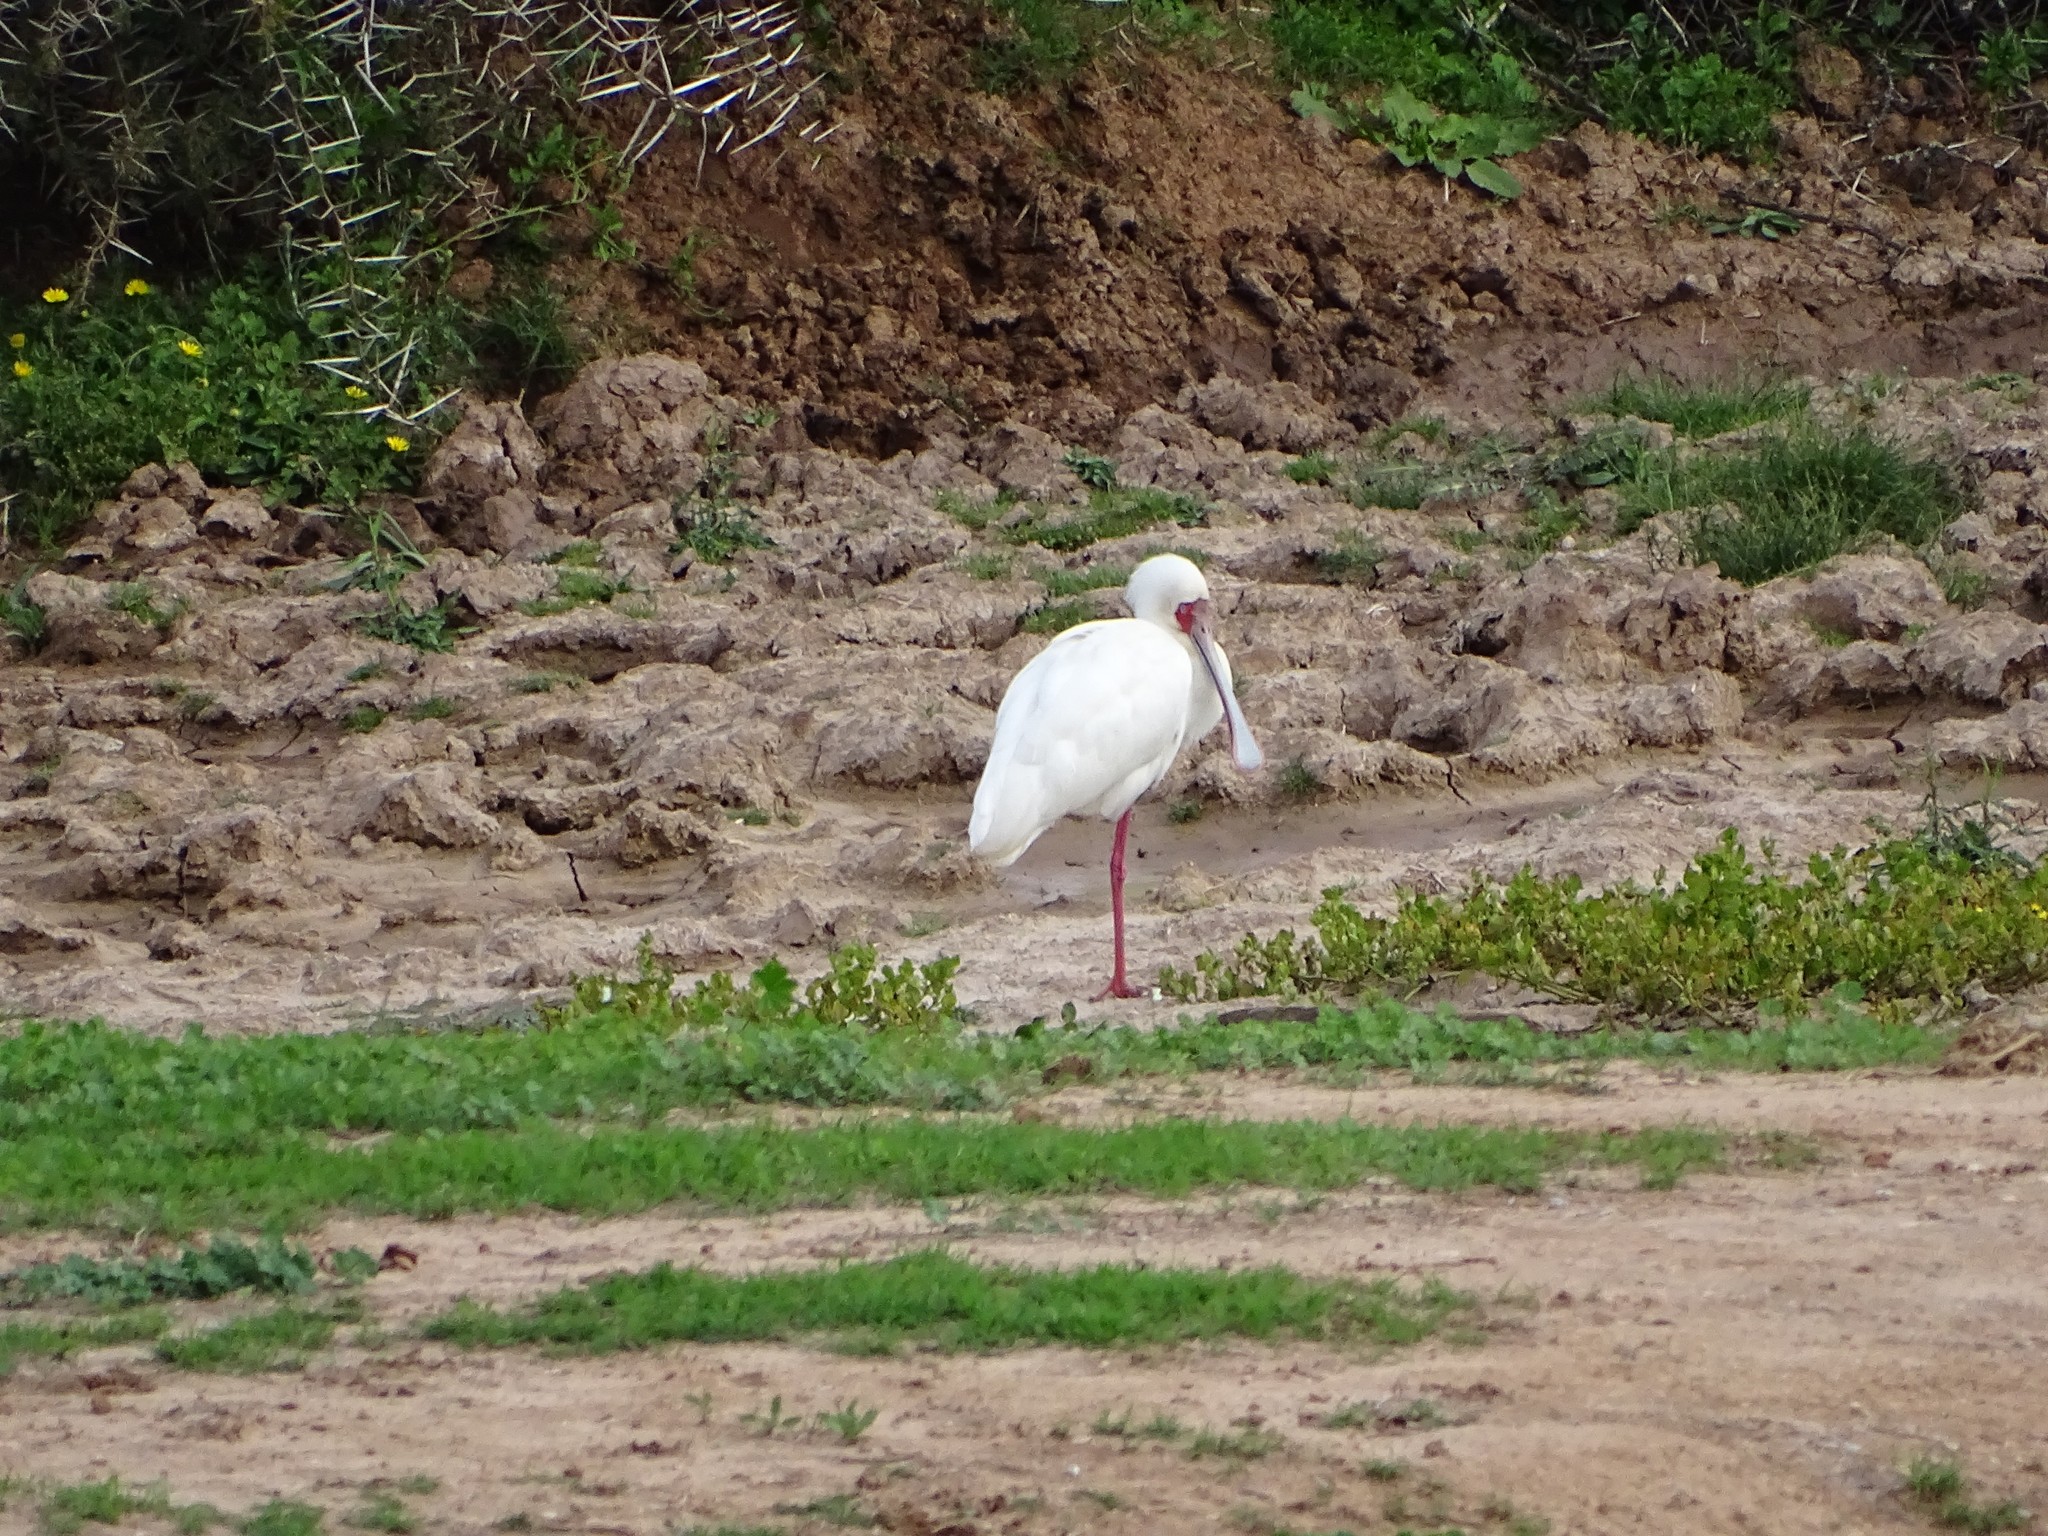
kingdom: Animalia
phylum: Chordata
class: Aves
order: Pelecaniformes
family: Threskiornithidae
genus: Platalea
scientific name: Platalea alba
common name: African spoonbill
